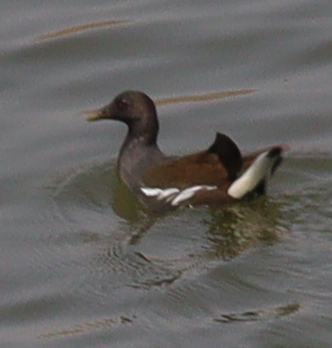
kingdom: Animalia
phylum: Chordata
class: Aves
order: Gruiformes
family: Rallidae
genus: Gallinula
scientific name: Gallinula chloropus
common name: Common moorhen
